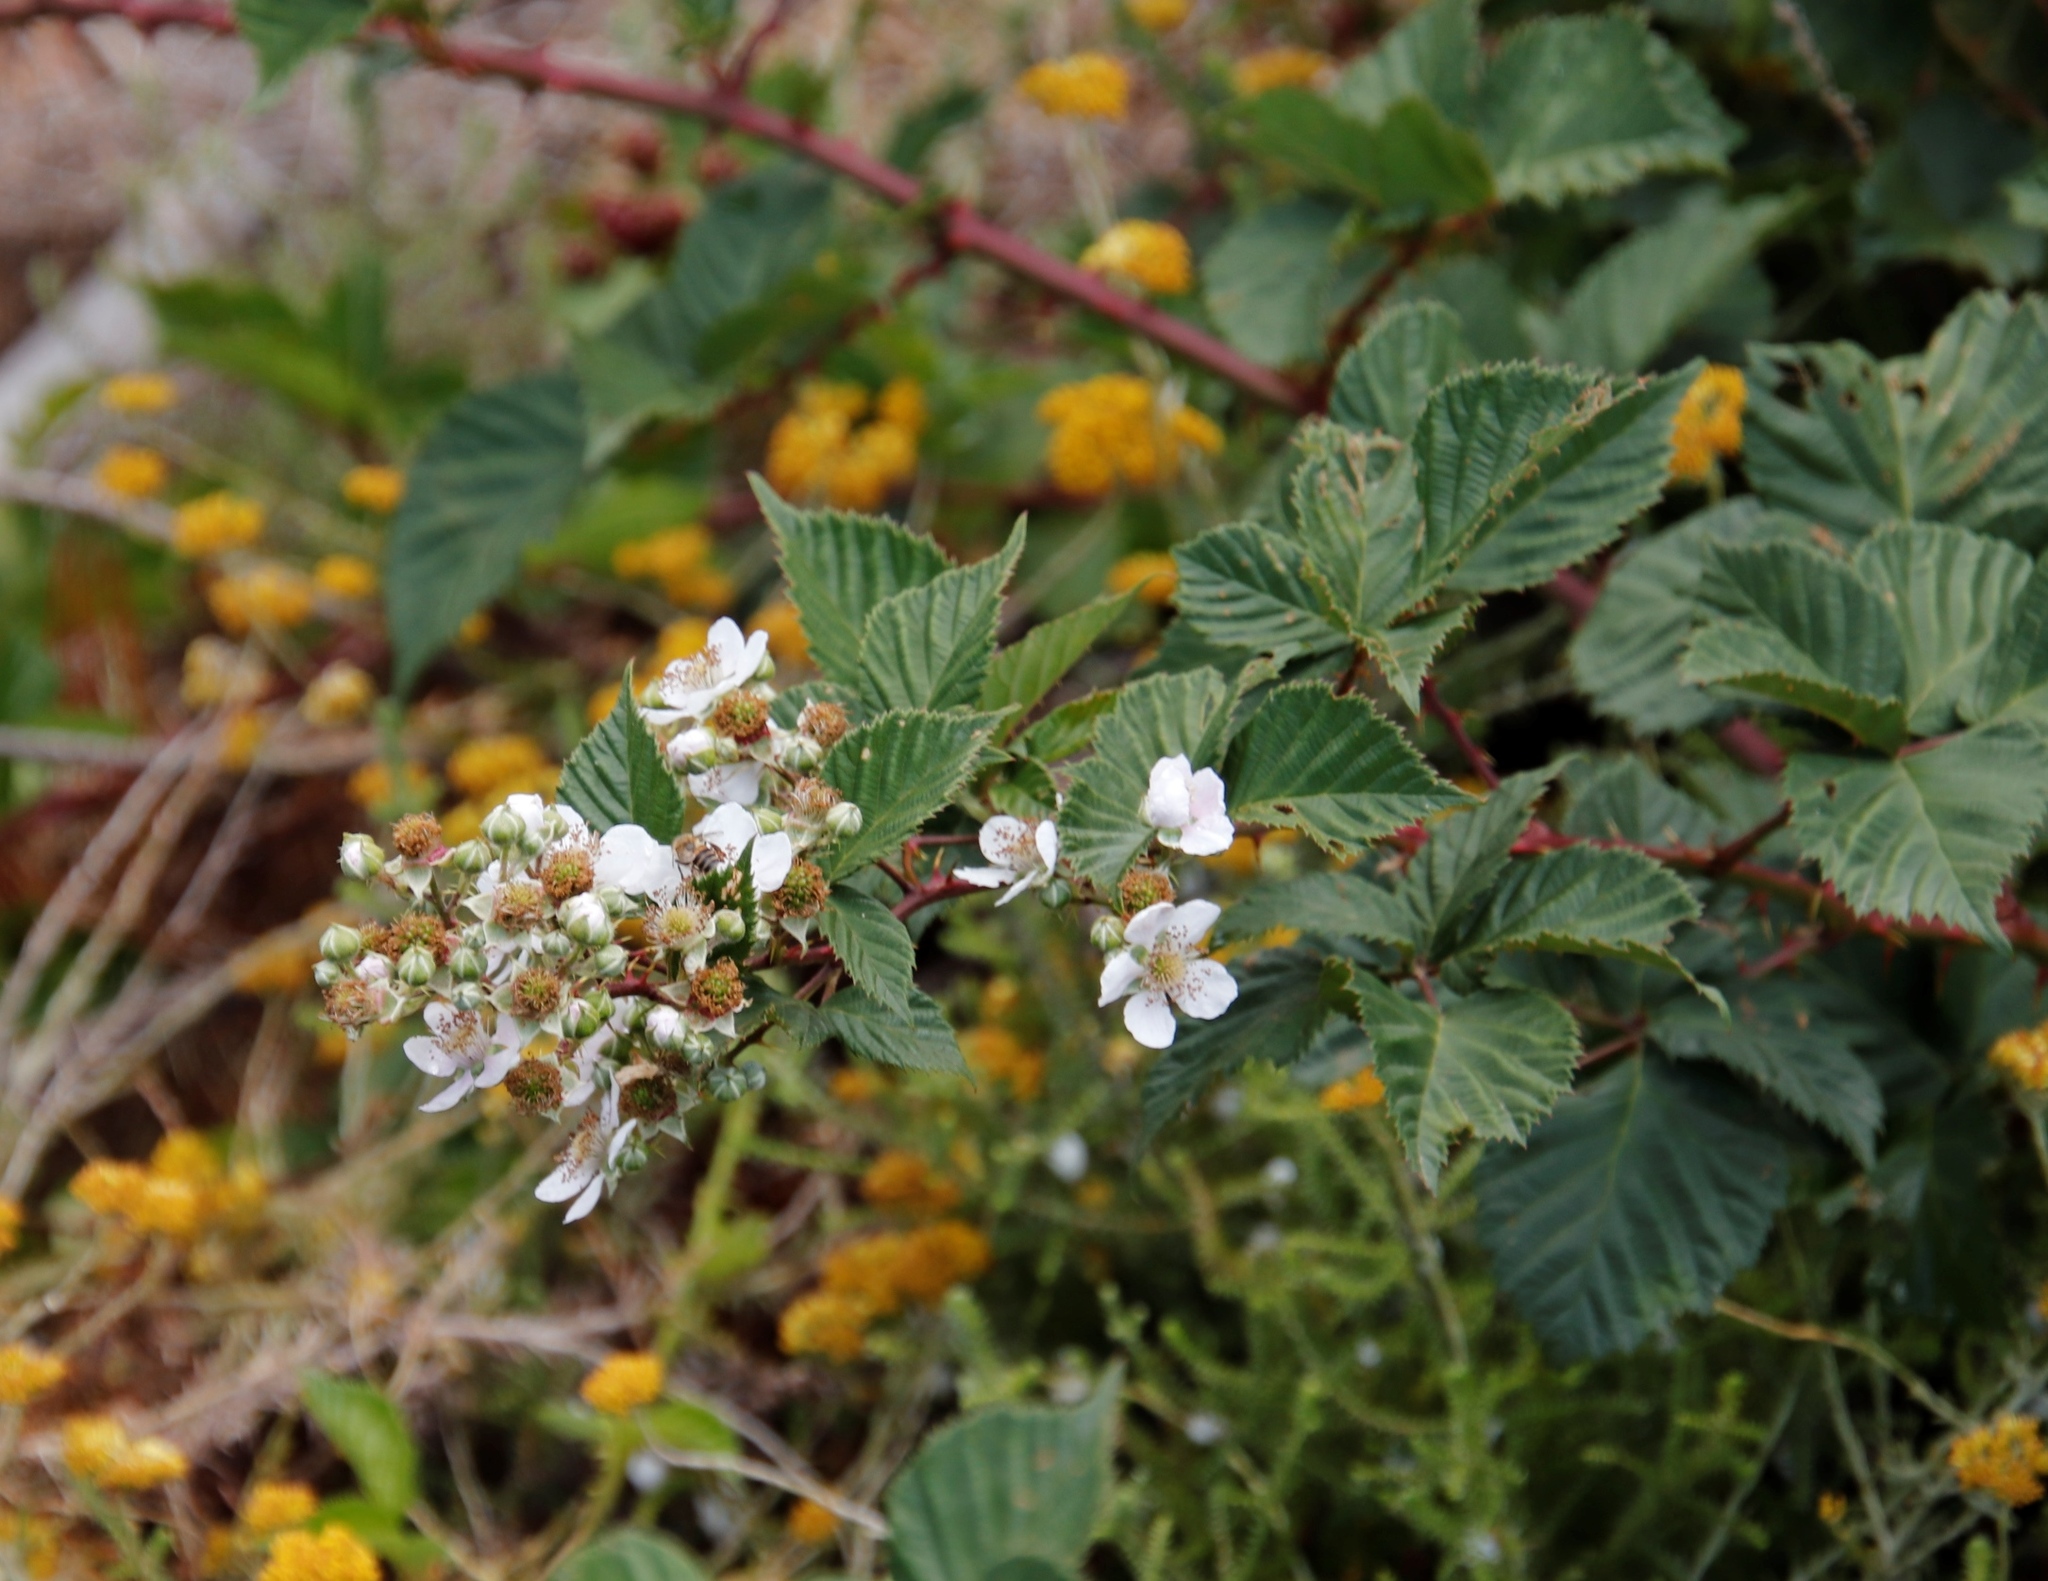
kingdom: Plantae
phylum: Tracheophyta
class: Magnoliopsida
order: Rosales
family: Rosaceae
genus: Rubus
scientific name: Rubus affinis
